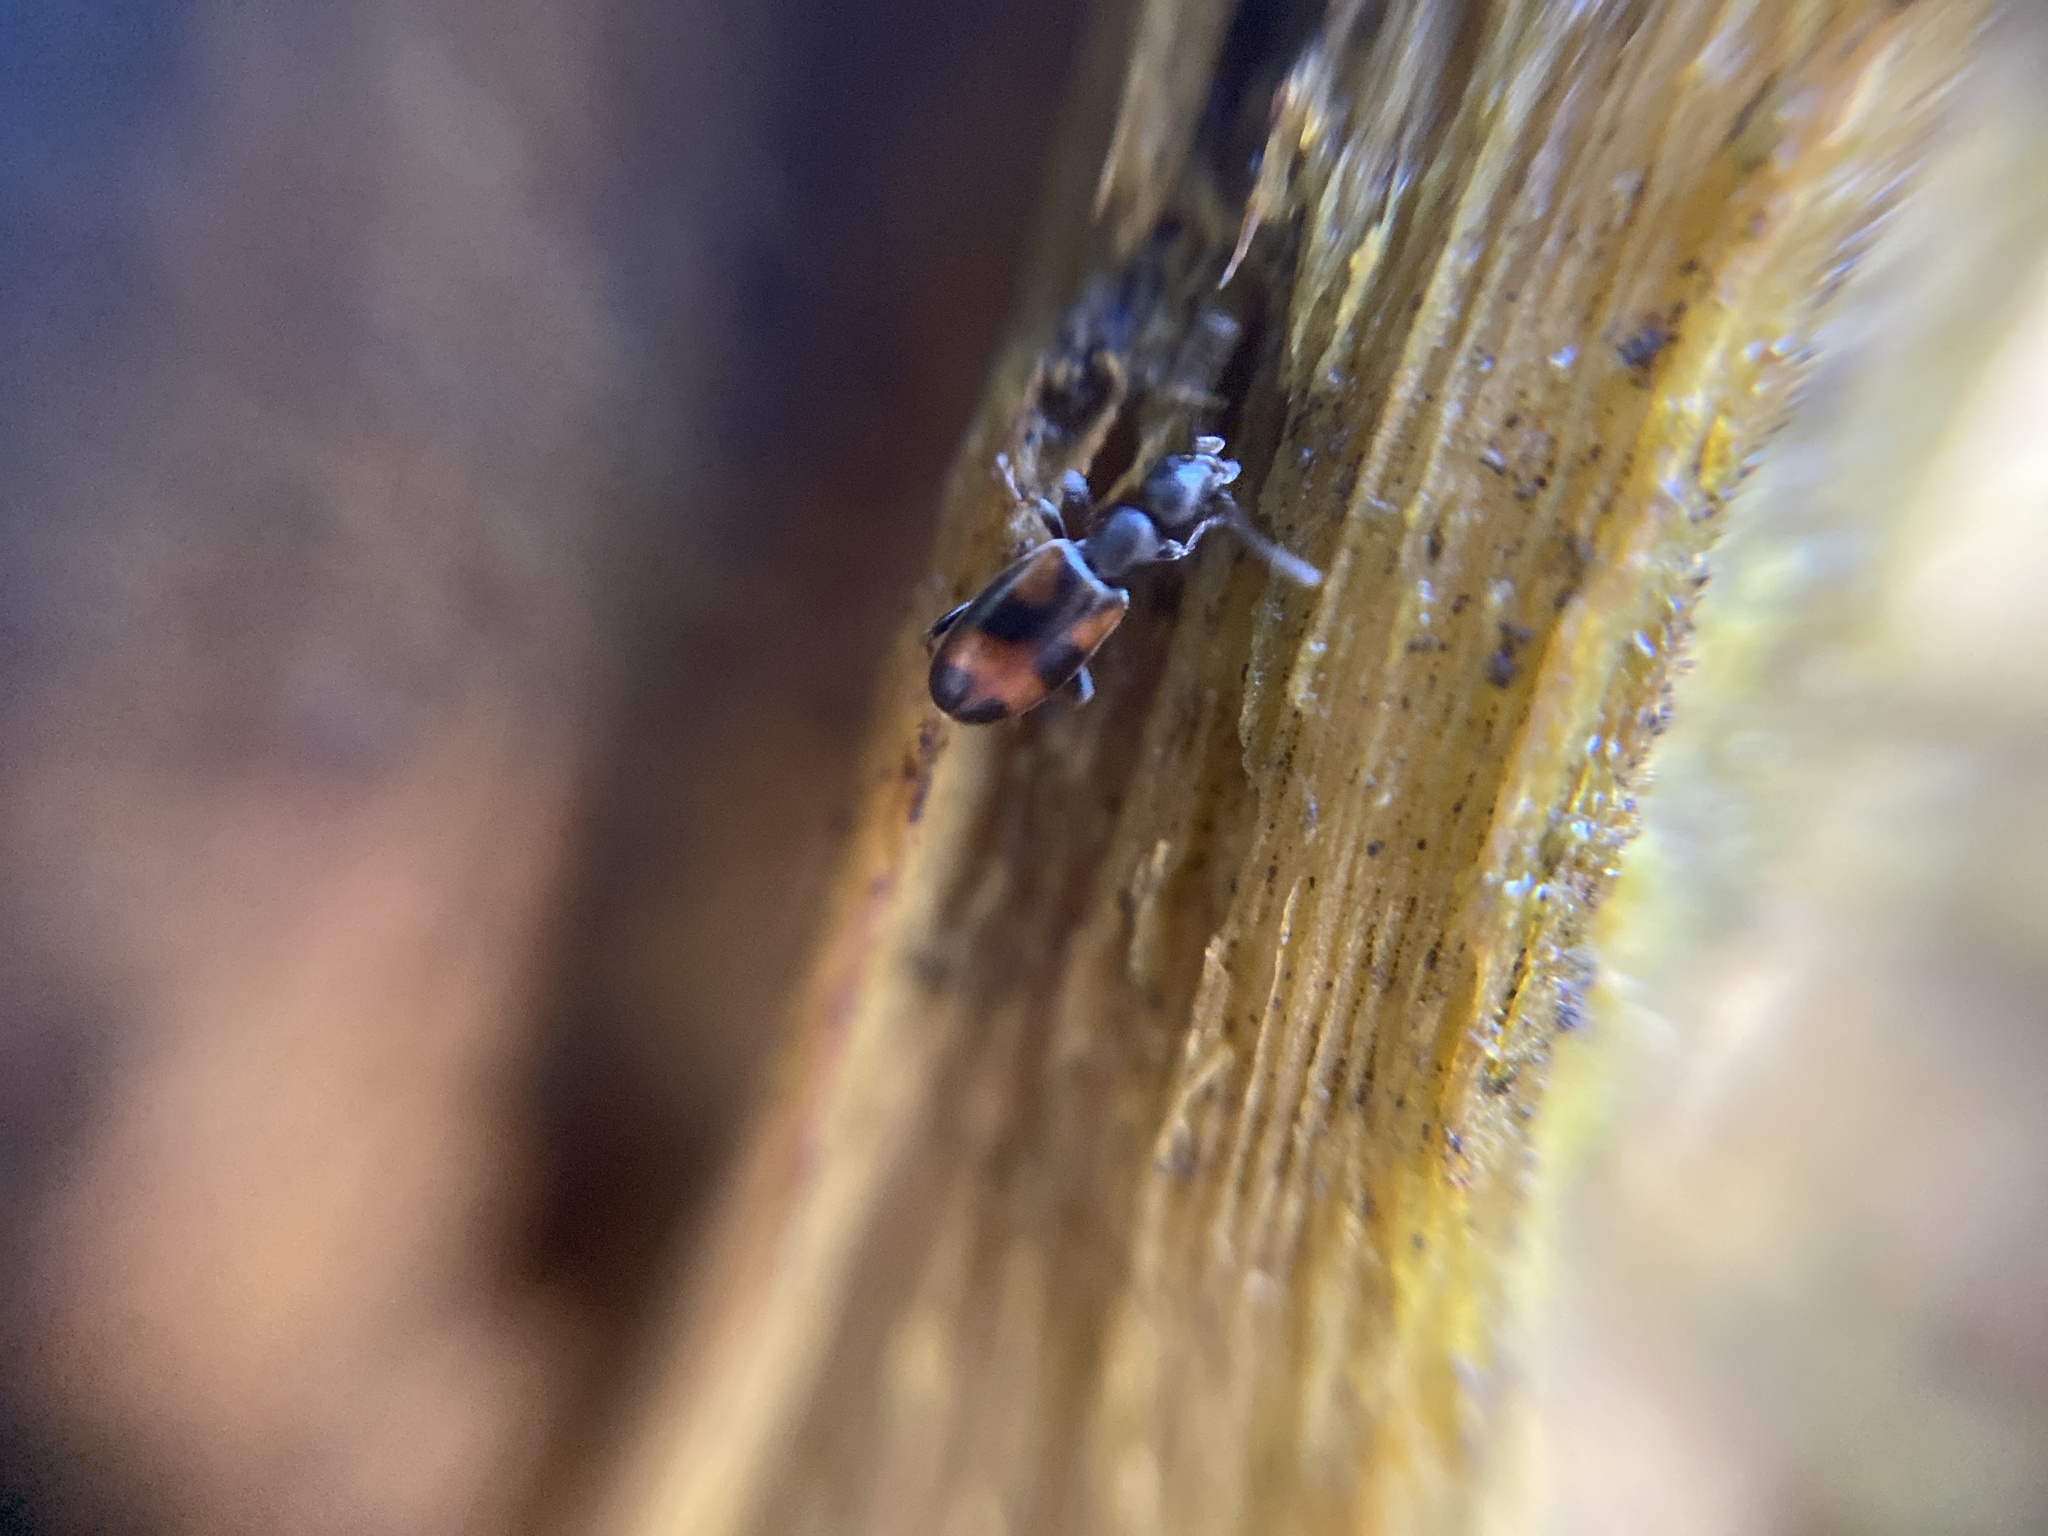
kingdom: Animalia
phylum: Arthropoda
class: Insecta
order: Coleoptera
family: Anthicidae
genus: Anthicus
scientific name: Anthicus antherinus
